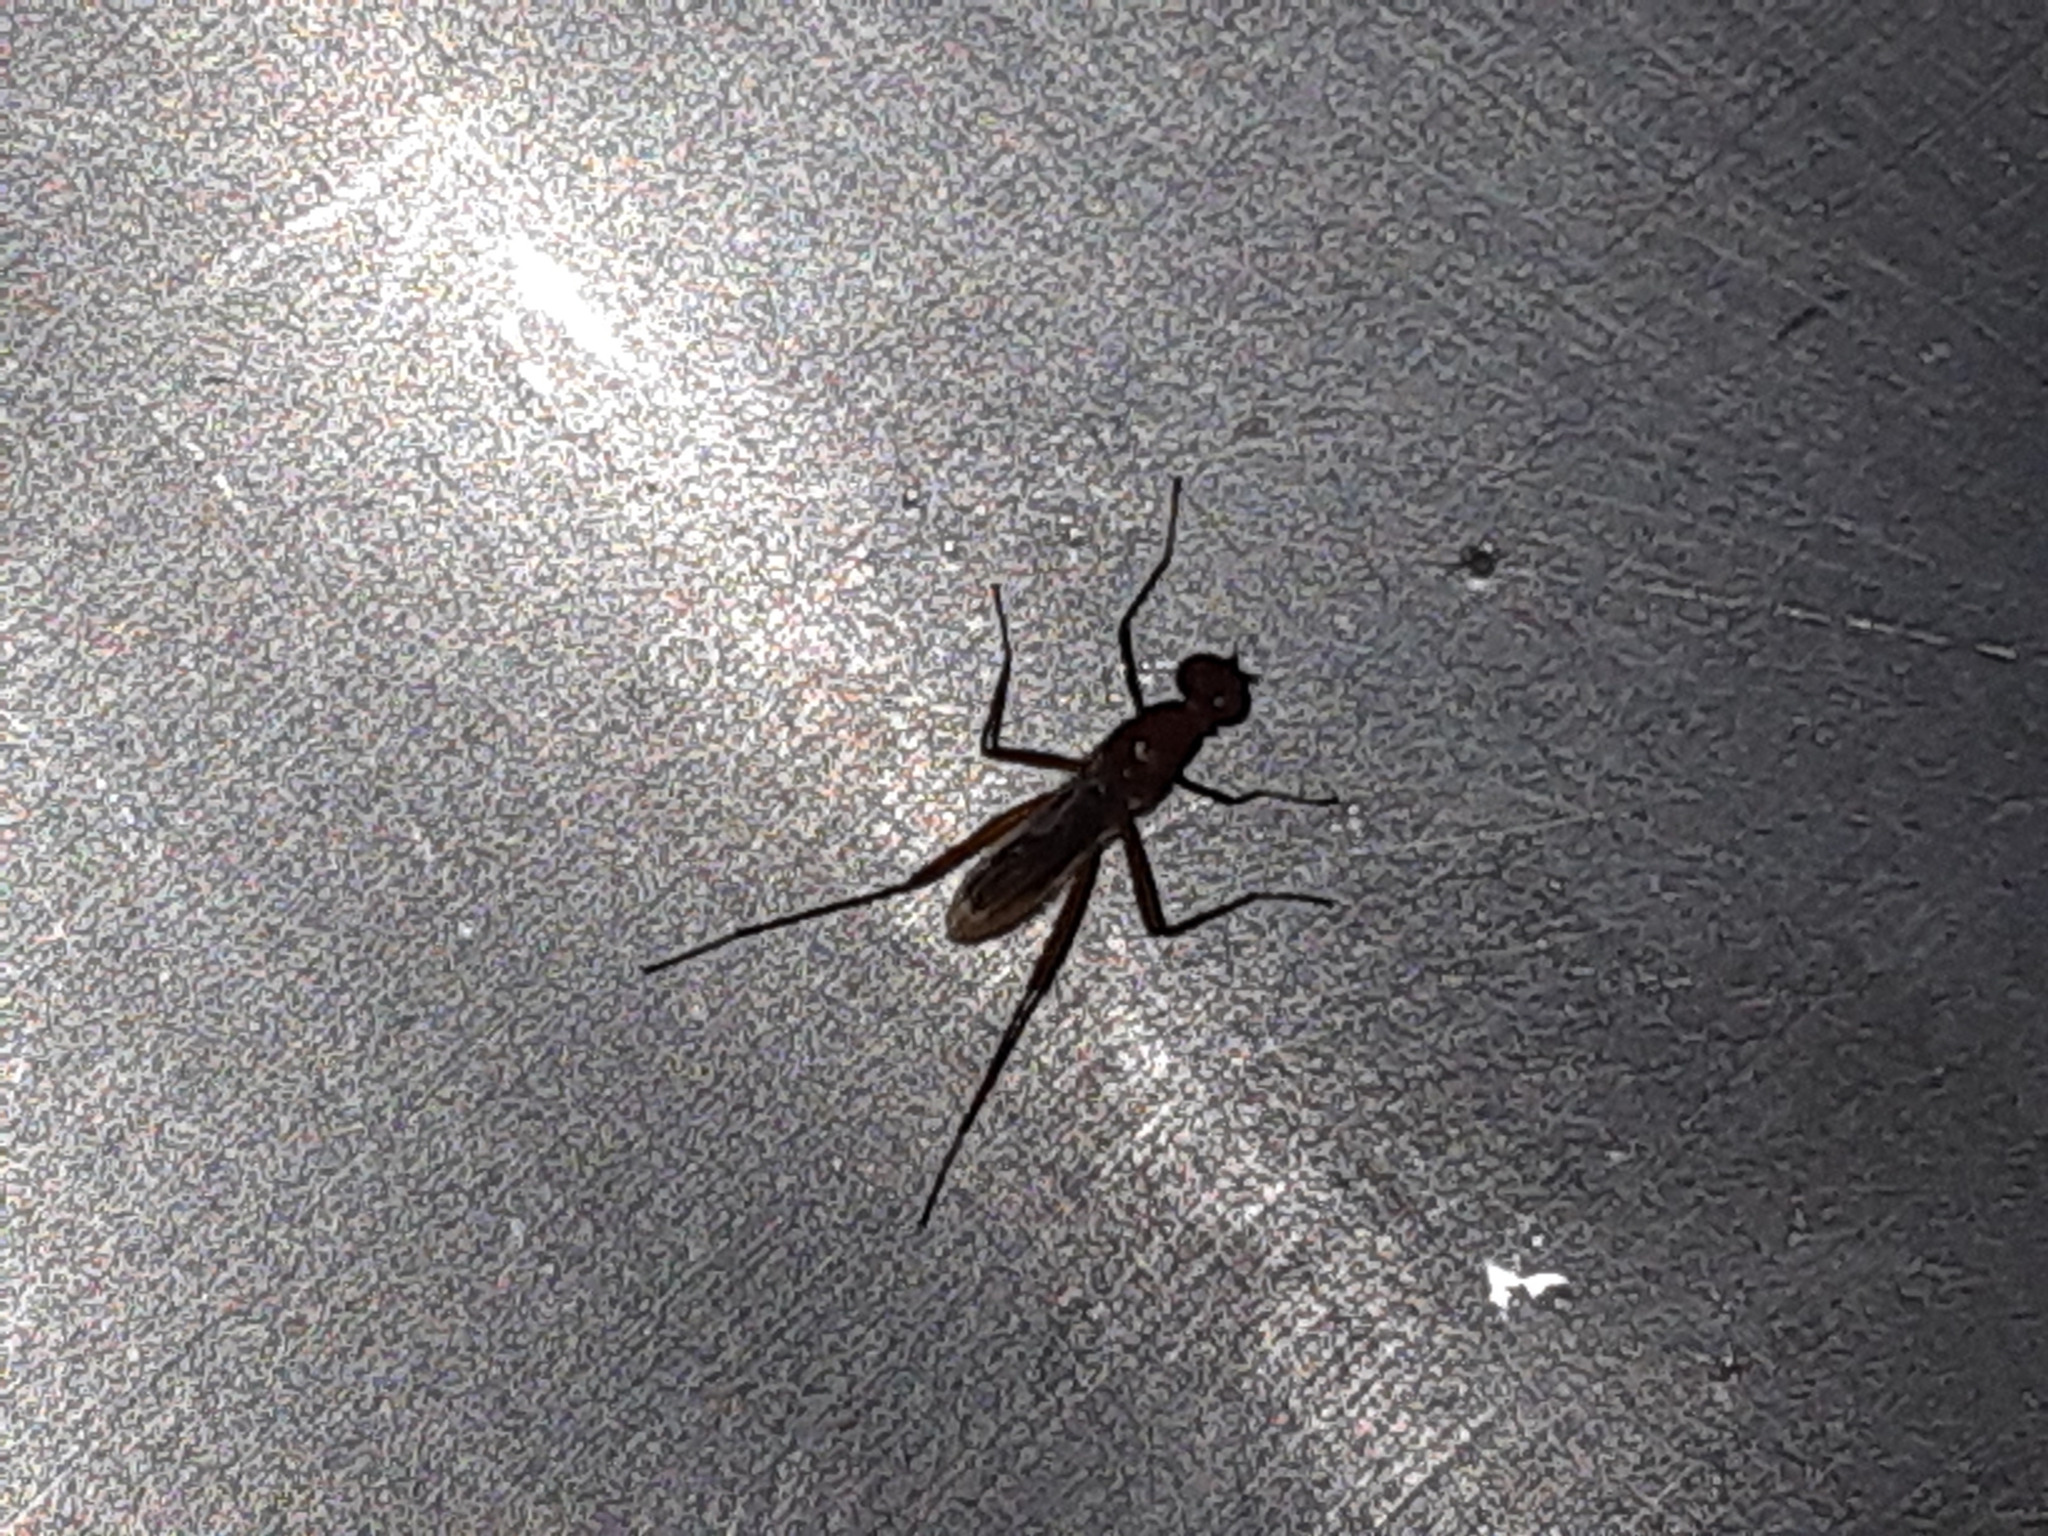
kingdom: Animalia
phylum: Arthropoda
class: Insecta
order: Diptera
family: Micropezidae
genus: Grallipeza
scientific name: Grallipeza nebulosa
